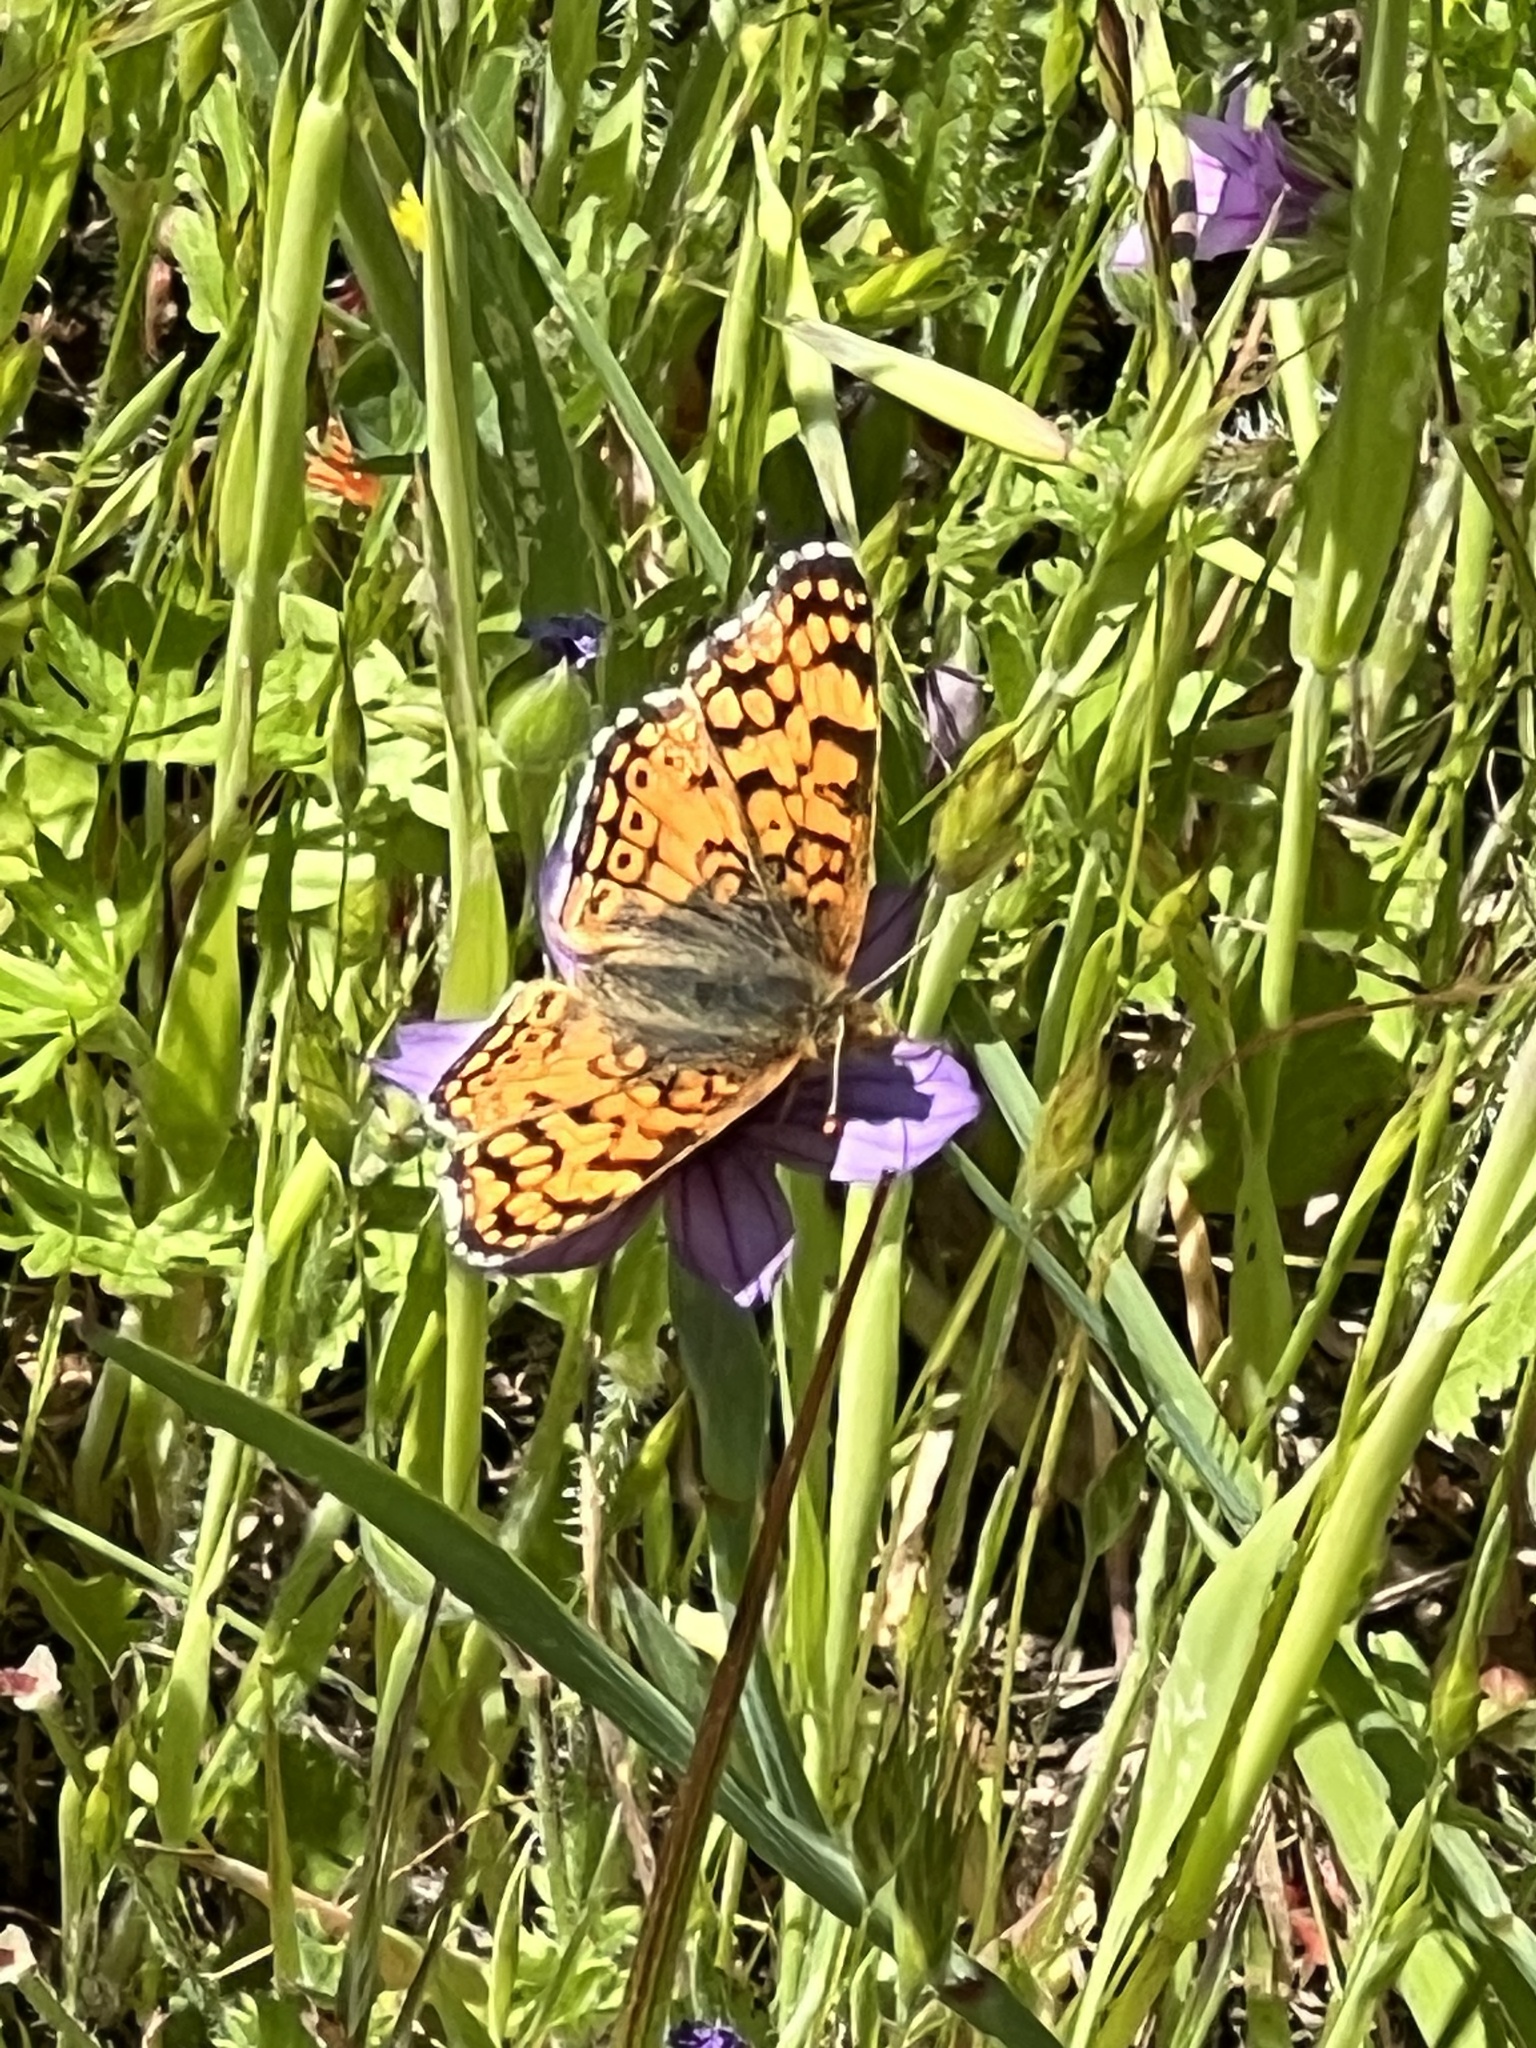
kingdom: Animalia
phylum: Arthropoda
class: Insecta
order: Lepidoptera
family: Nymphalidae
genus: Eresia
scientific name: Eresia aveyrona
